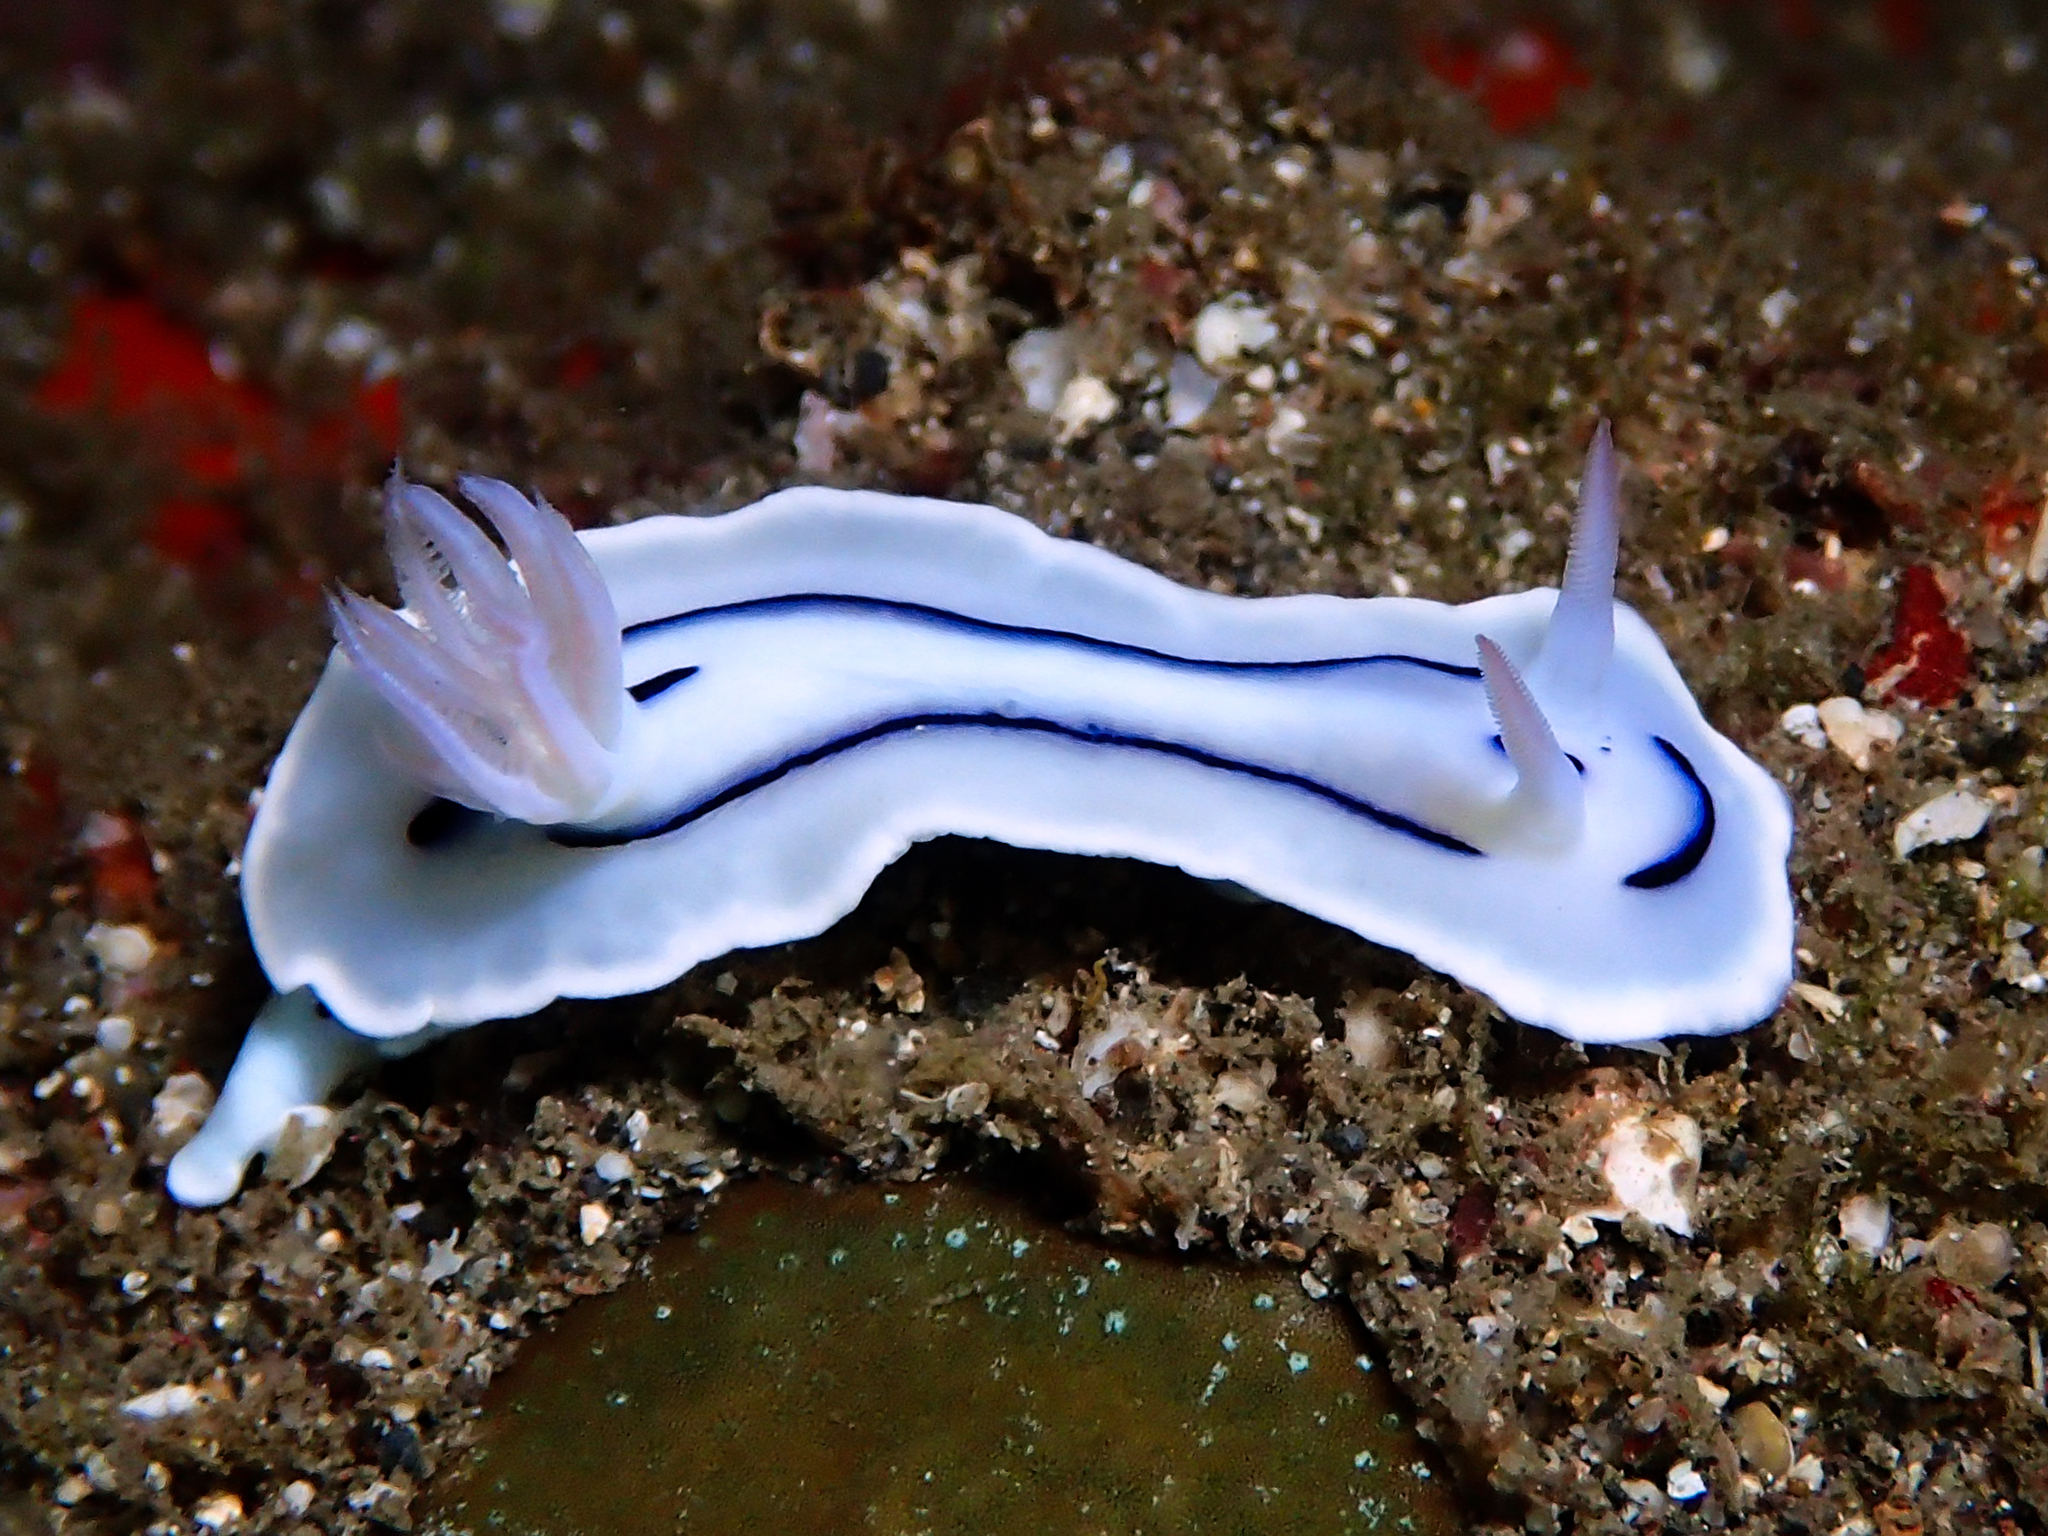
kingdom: Animalia
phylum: Mollusca
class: Gastropoda
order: Nudibranchia
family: Chromodorididae
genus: Chromodoris
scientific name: Chromodoris lochi
